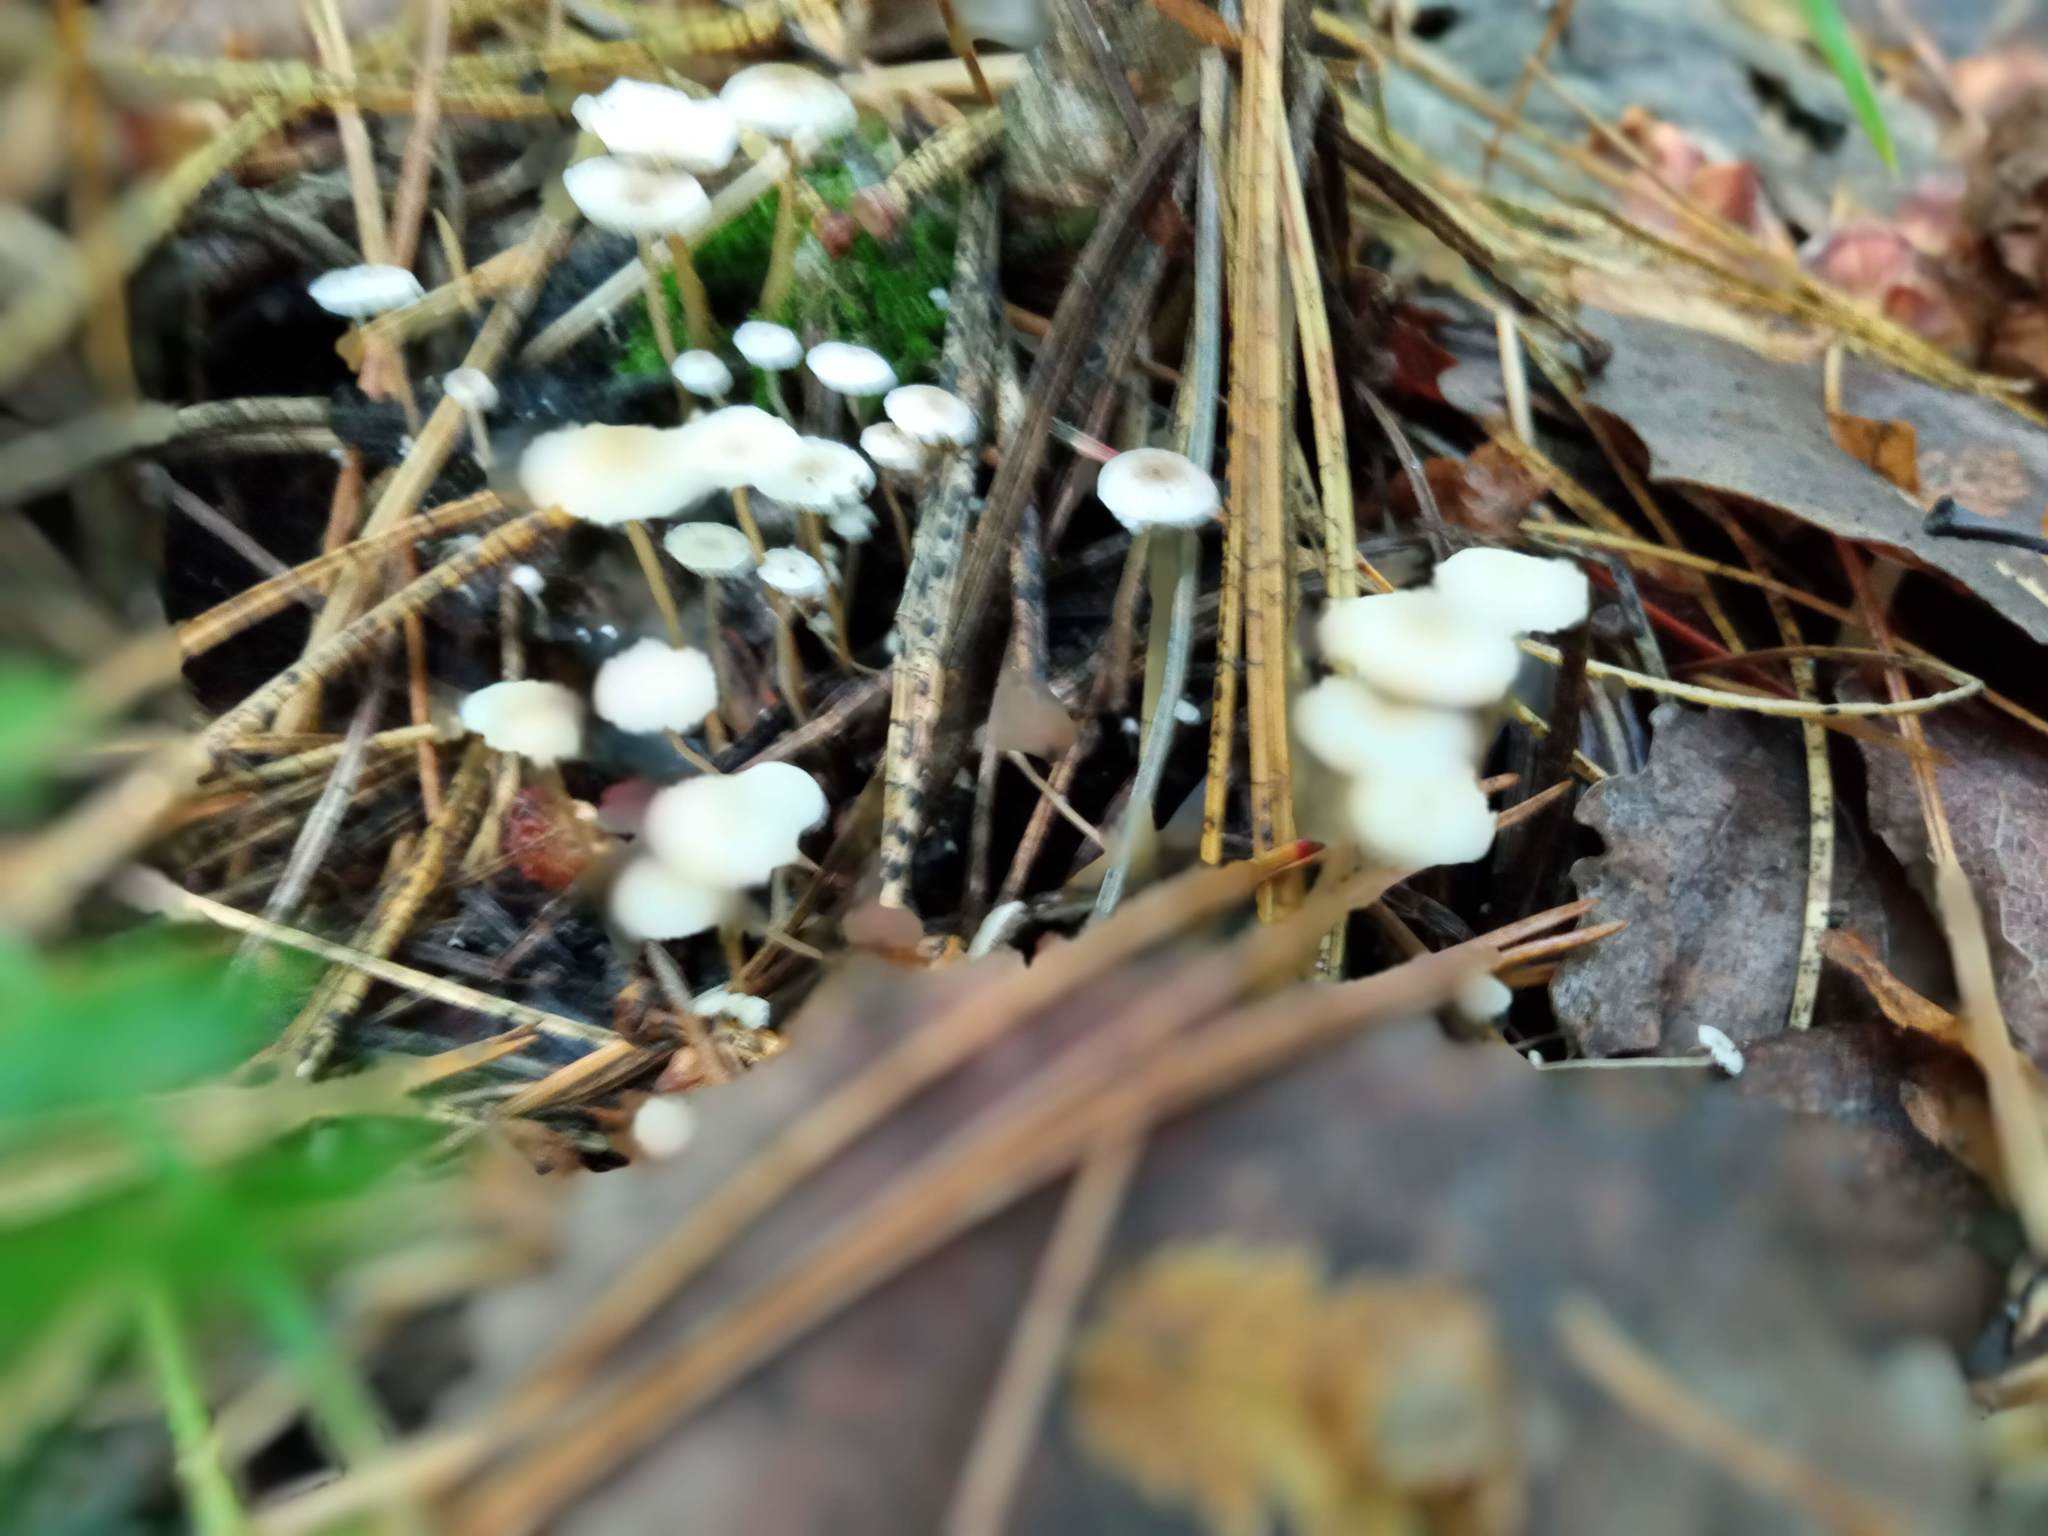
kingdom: Fungi
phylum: Basidiomycota
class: Agaricomycetes
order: Agaricales
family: Tricholomataceae
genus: Collybia
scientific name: Collybia cirrhata
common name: Piggyback shanklet
